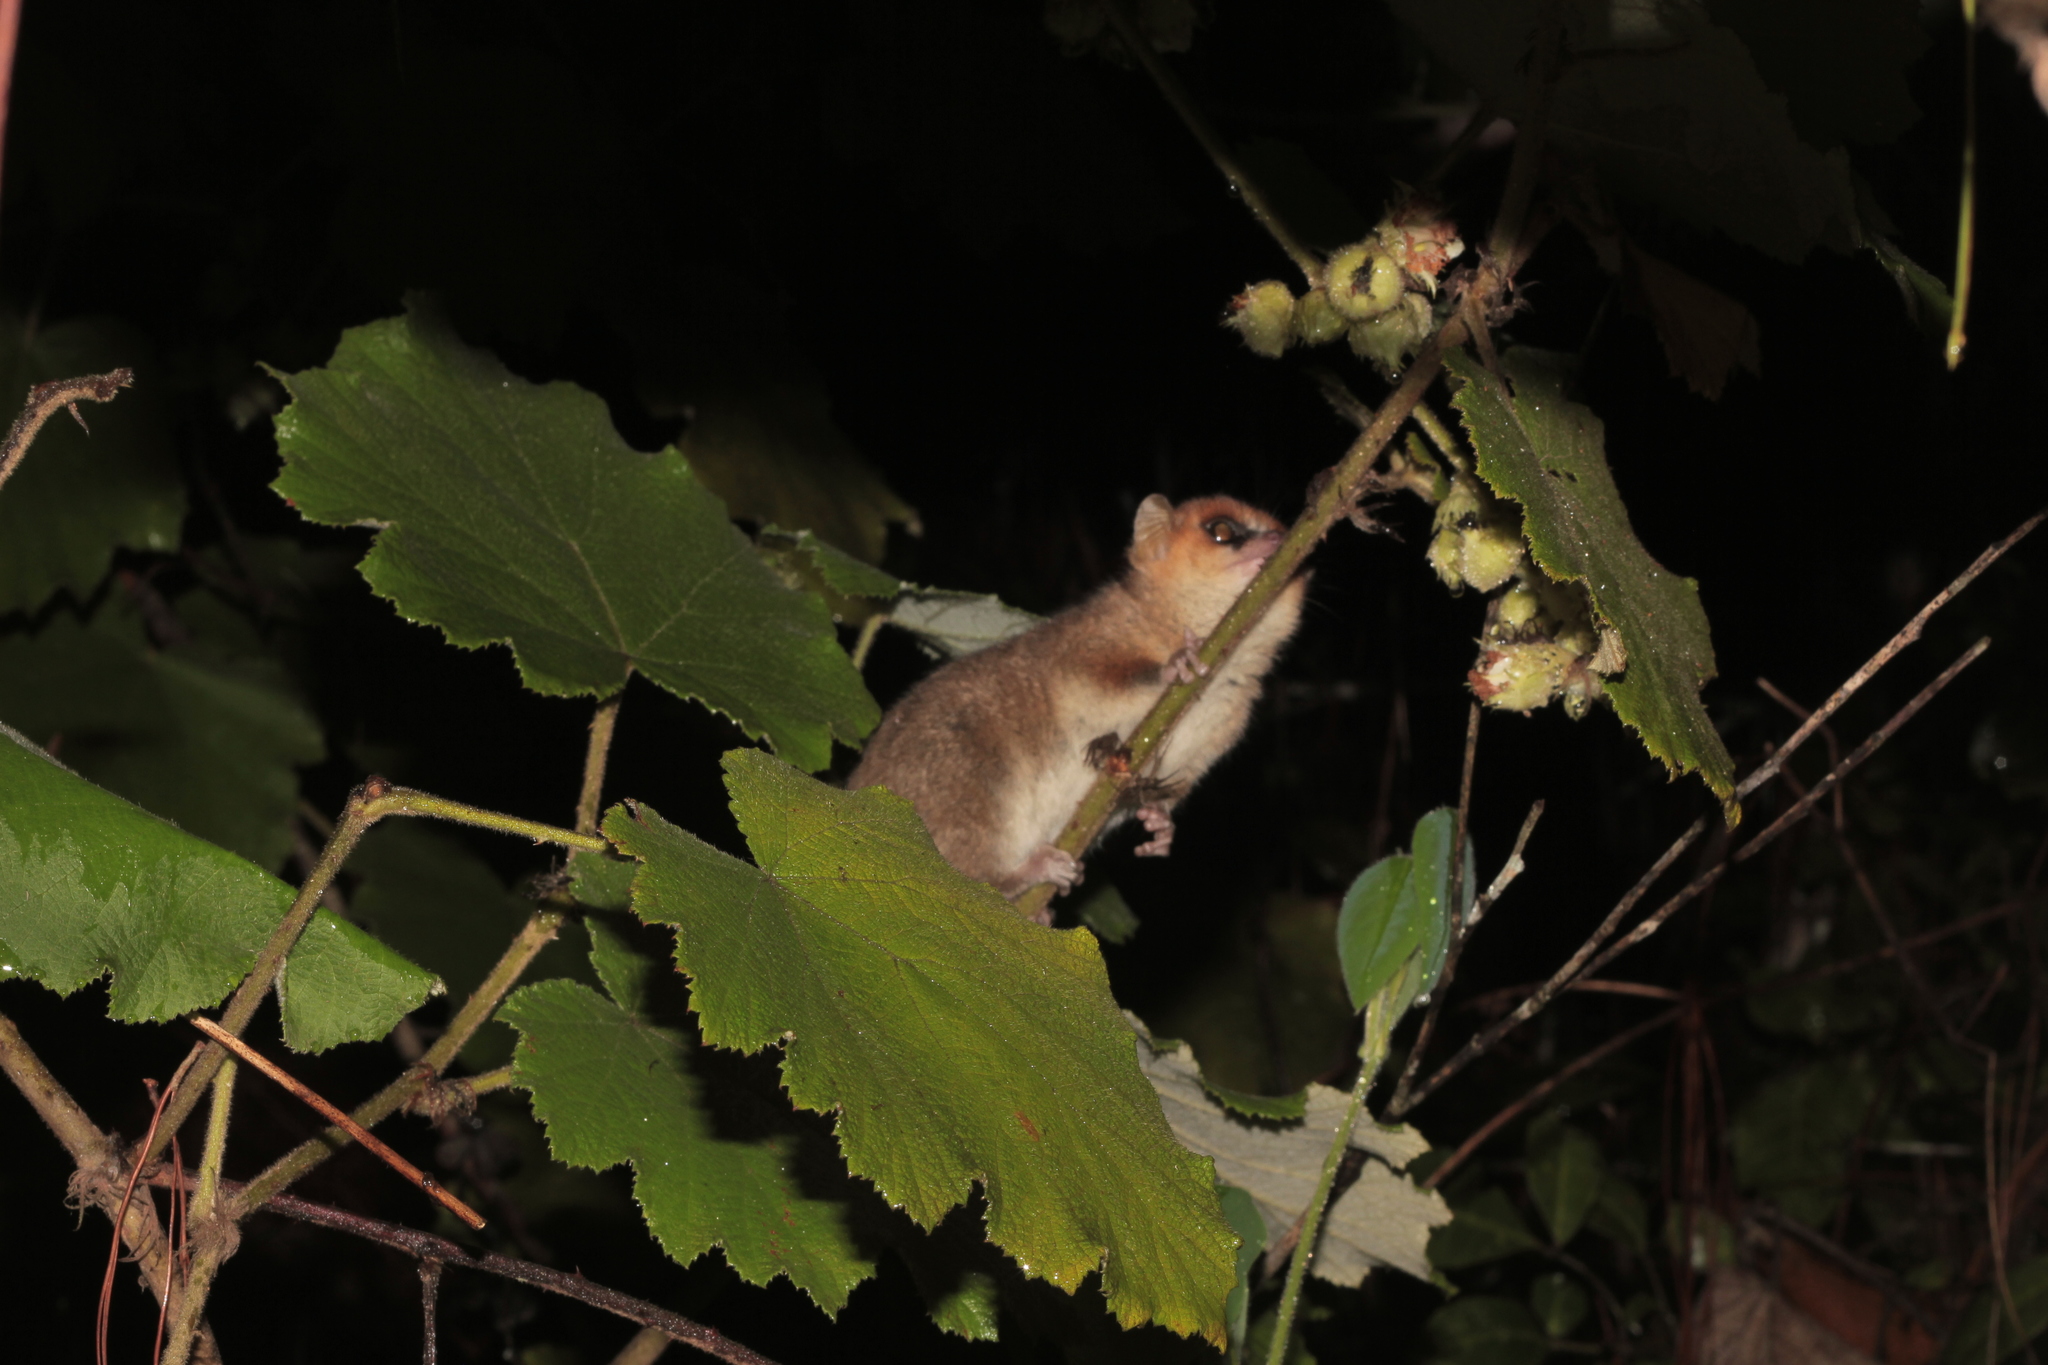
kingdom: Animalia
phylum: Chordata
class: Mammalia
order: Primates
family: Cheirogaleidae
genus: Microcebus
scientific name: Microcebus lehilahytsara
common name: Goodman's mouse lemur
